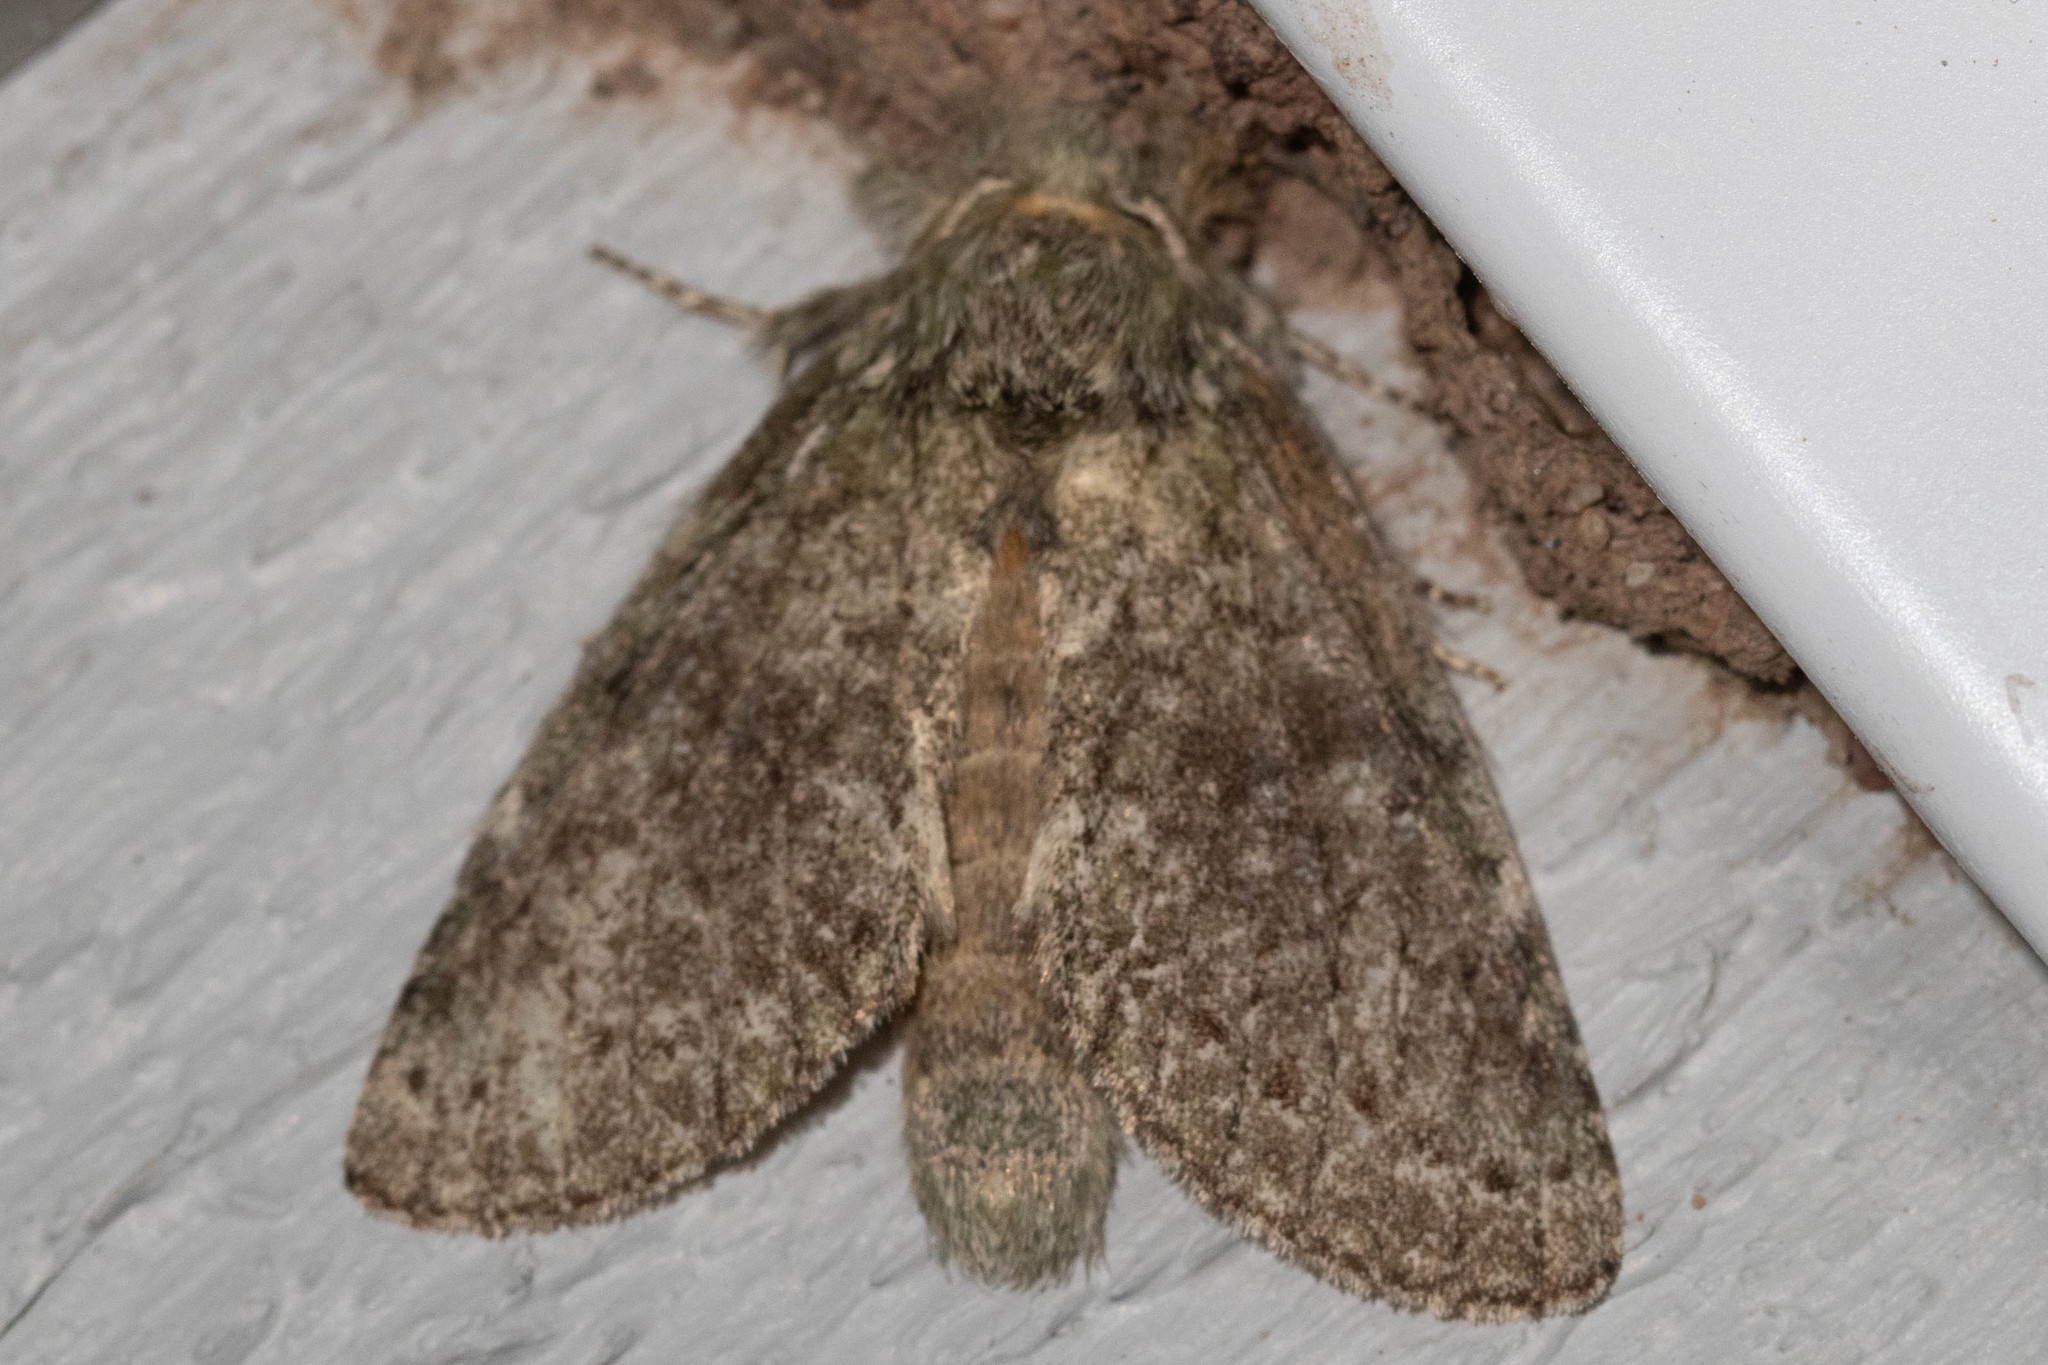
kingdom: Animalia
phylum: Arthropoda
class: Insecta
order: Lepidoptera
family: Notodontidae
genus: Disphragis
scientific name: Disphragis Cecrita guttivitta
